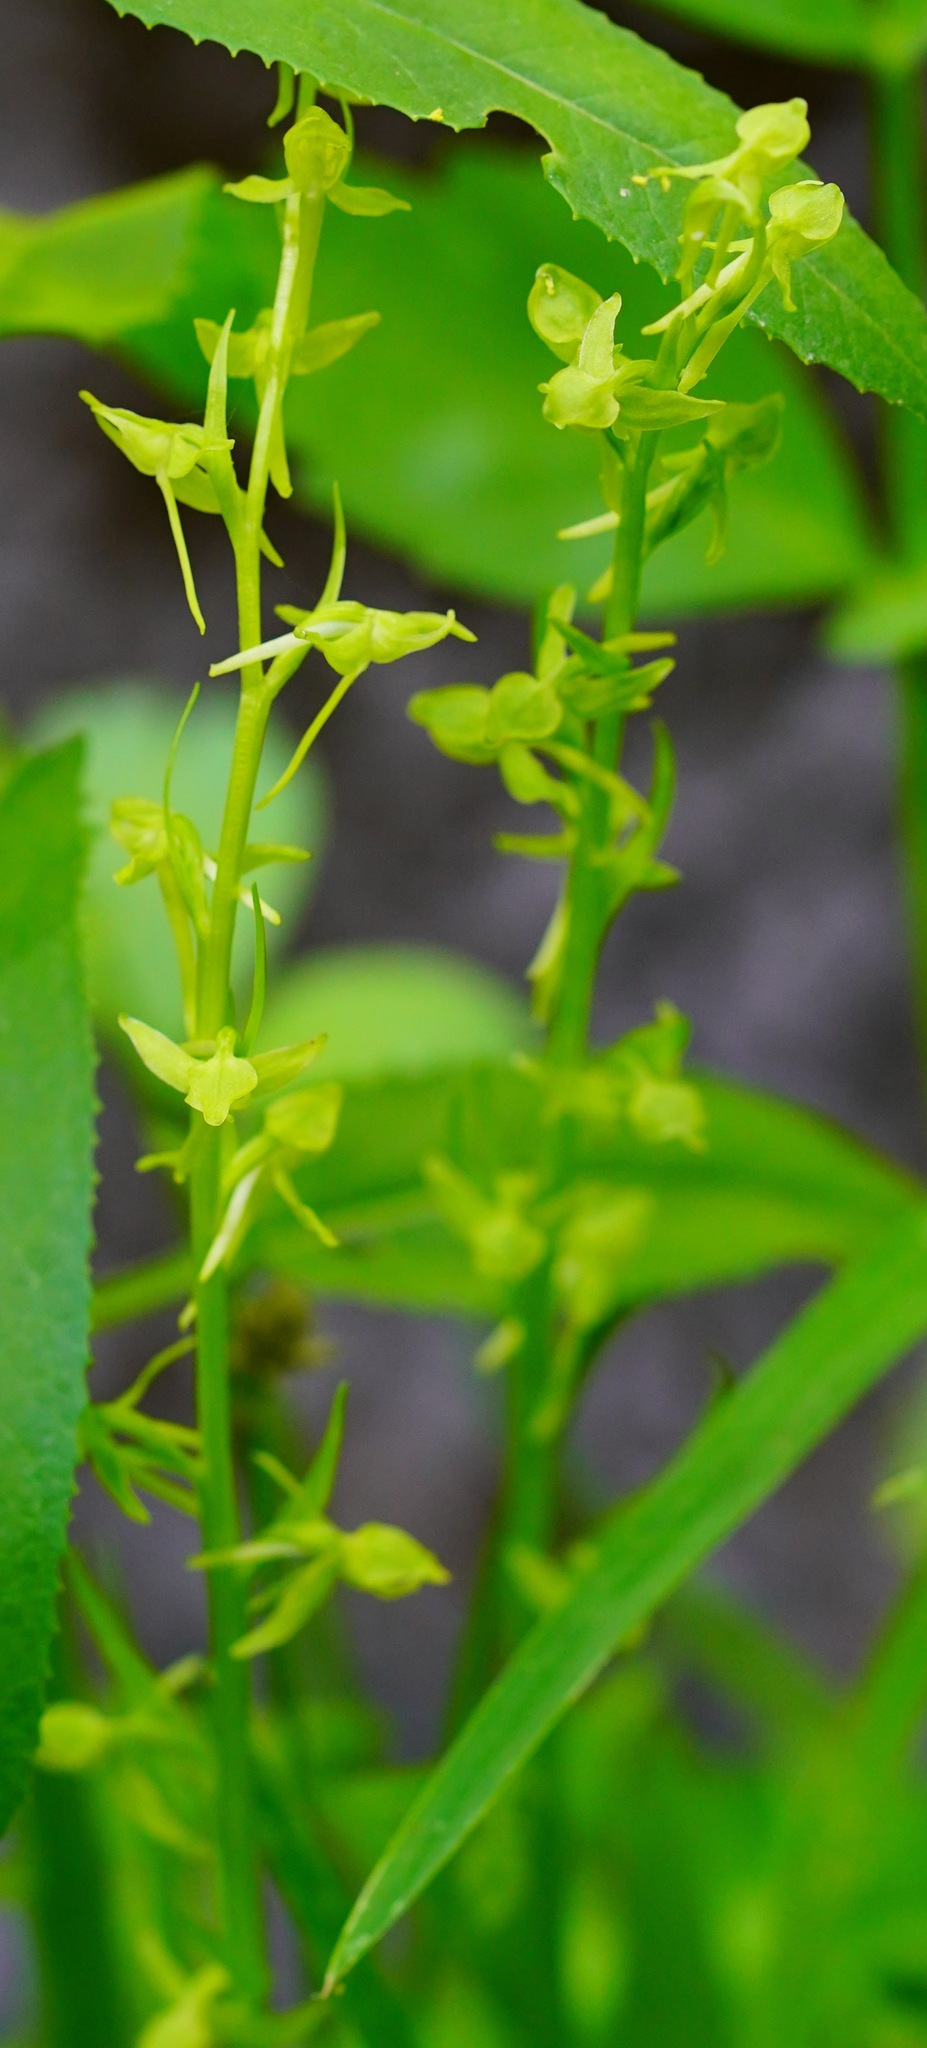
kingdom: Plantae
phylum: Tracheophyta
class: Liliopsida
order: Asparagales
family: Orchidaceae
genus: Platanthera
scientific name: Platanthera sparsiflora
